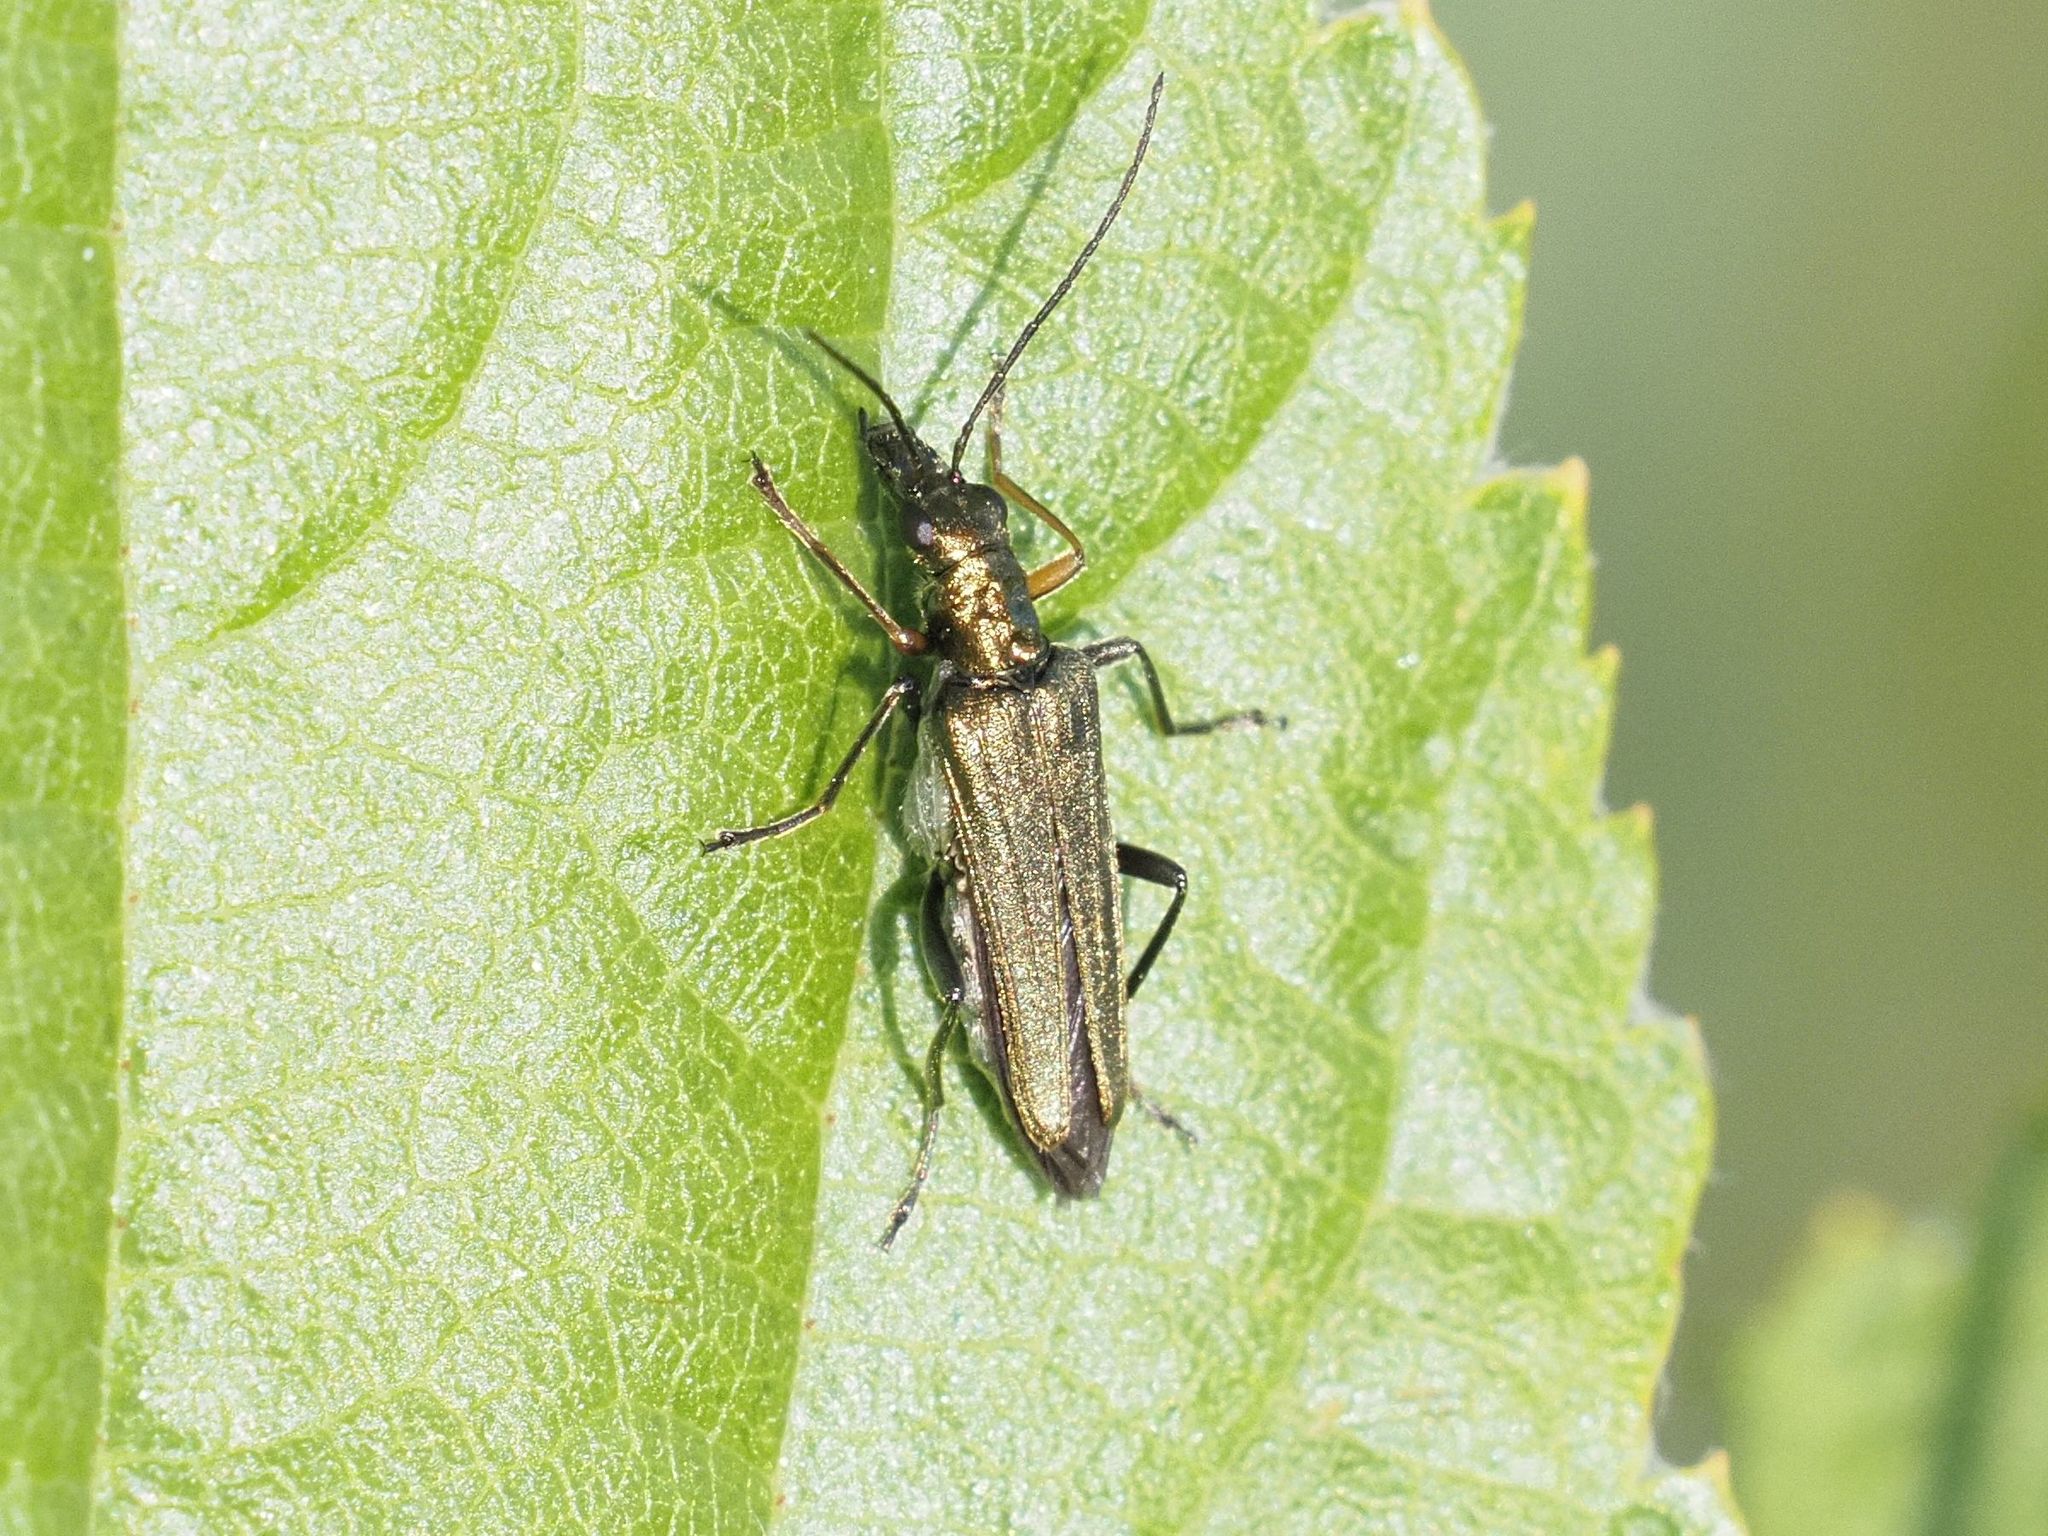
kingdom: Animalia
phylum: Arthropoda
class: Insecta
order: Coleoptera
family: Oedemeridae
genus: Oedemera
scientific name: Oedemera flavipes
